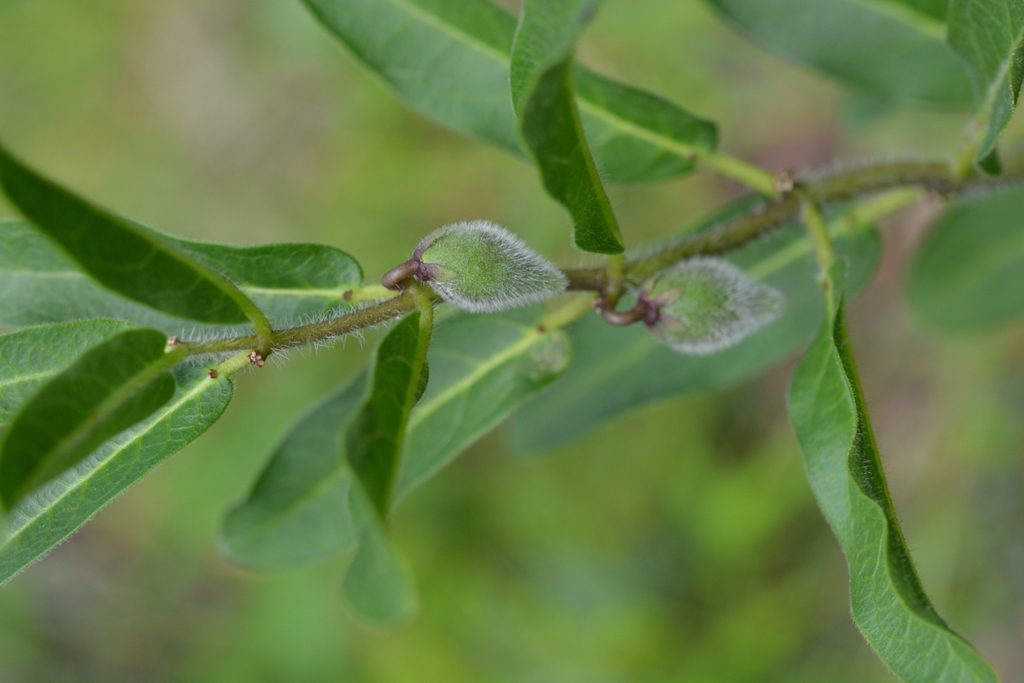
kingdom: Plantae
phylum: Tracheophyta
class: Magnoliopsida
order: Gentianales
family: Apocynaceae
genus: Pherotrichis
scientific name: Pherotrichis villosa
